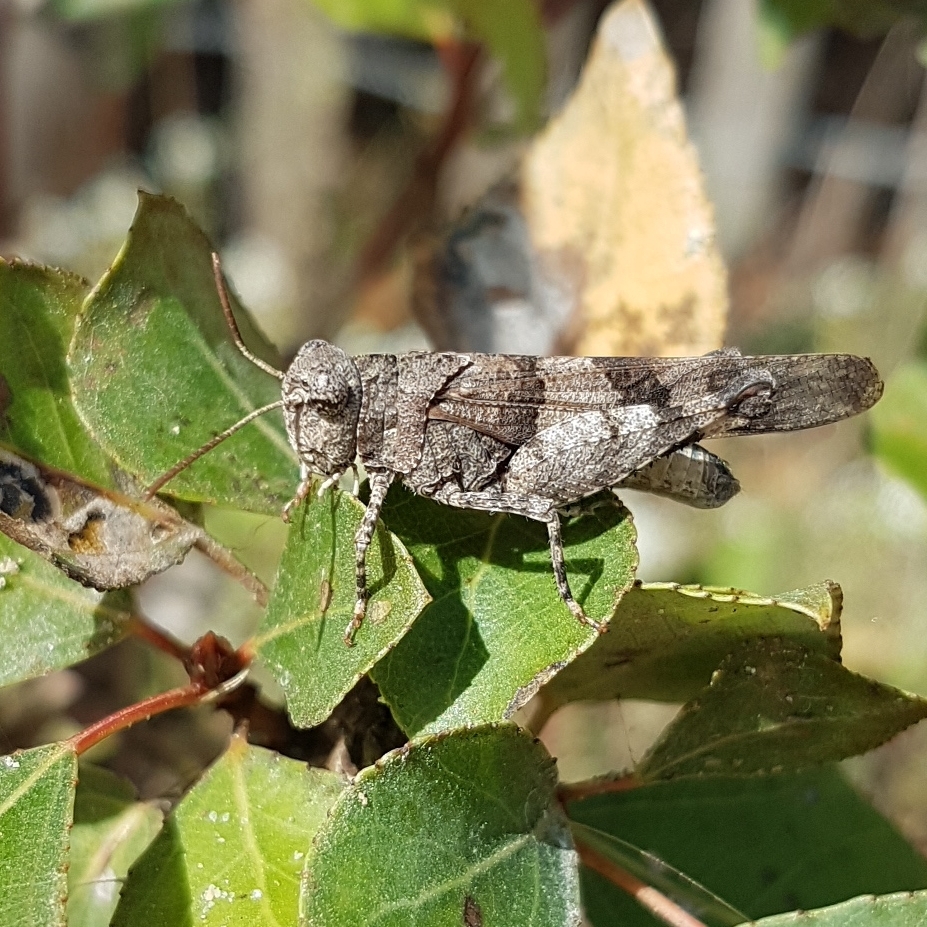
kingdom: Animalia
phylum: Arthropoda
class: Insecta
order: Orthoptera
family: Acrididae
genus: Oedipoda
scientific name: Oedipoda caerulescens
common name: Blue-winged grasshopper
